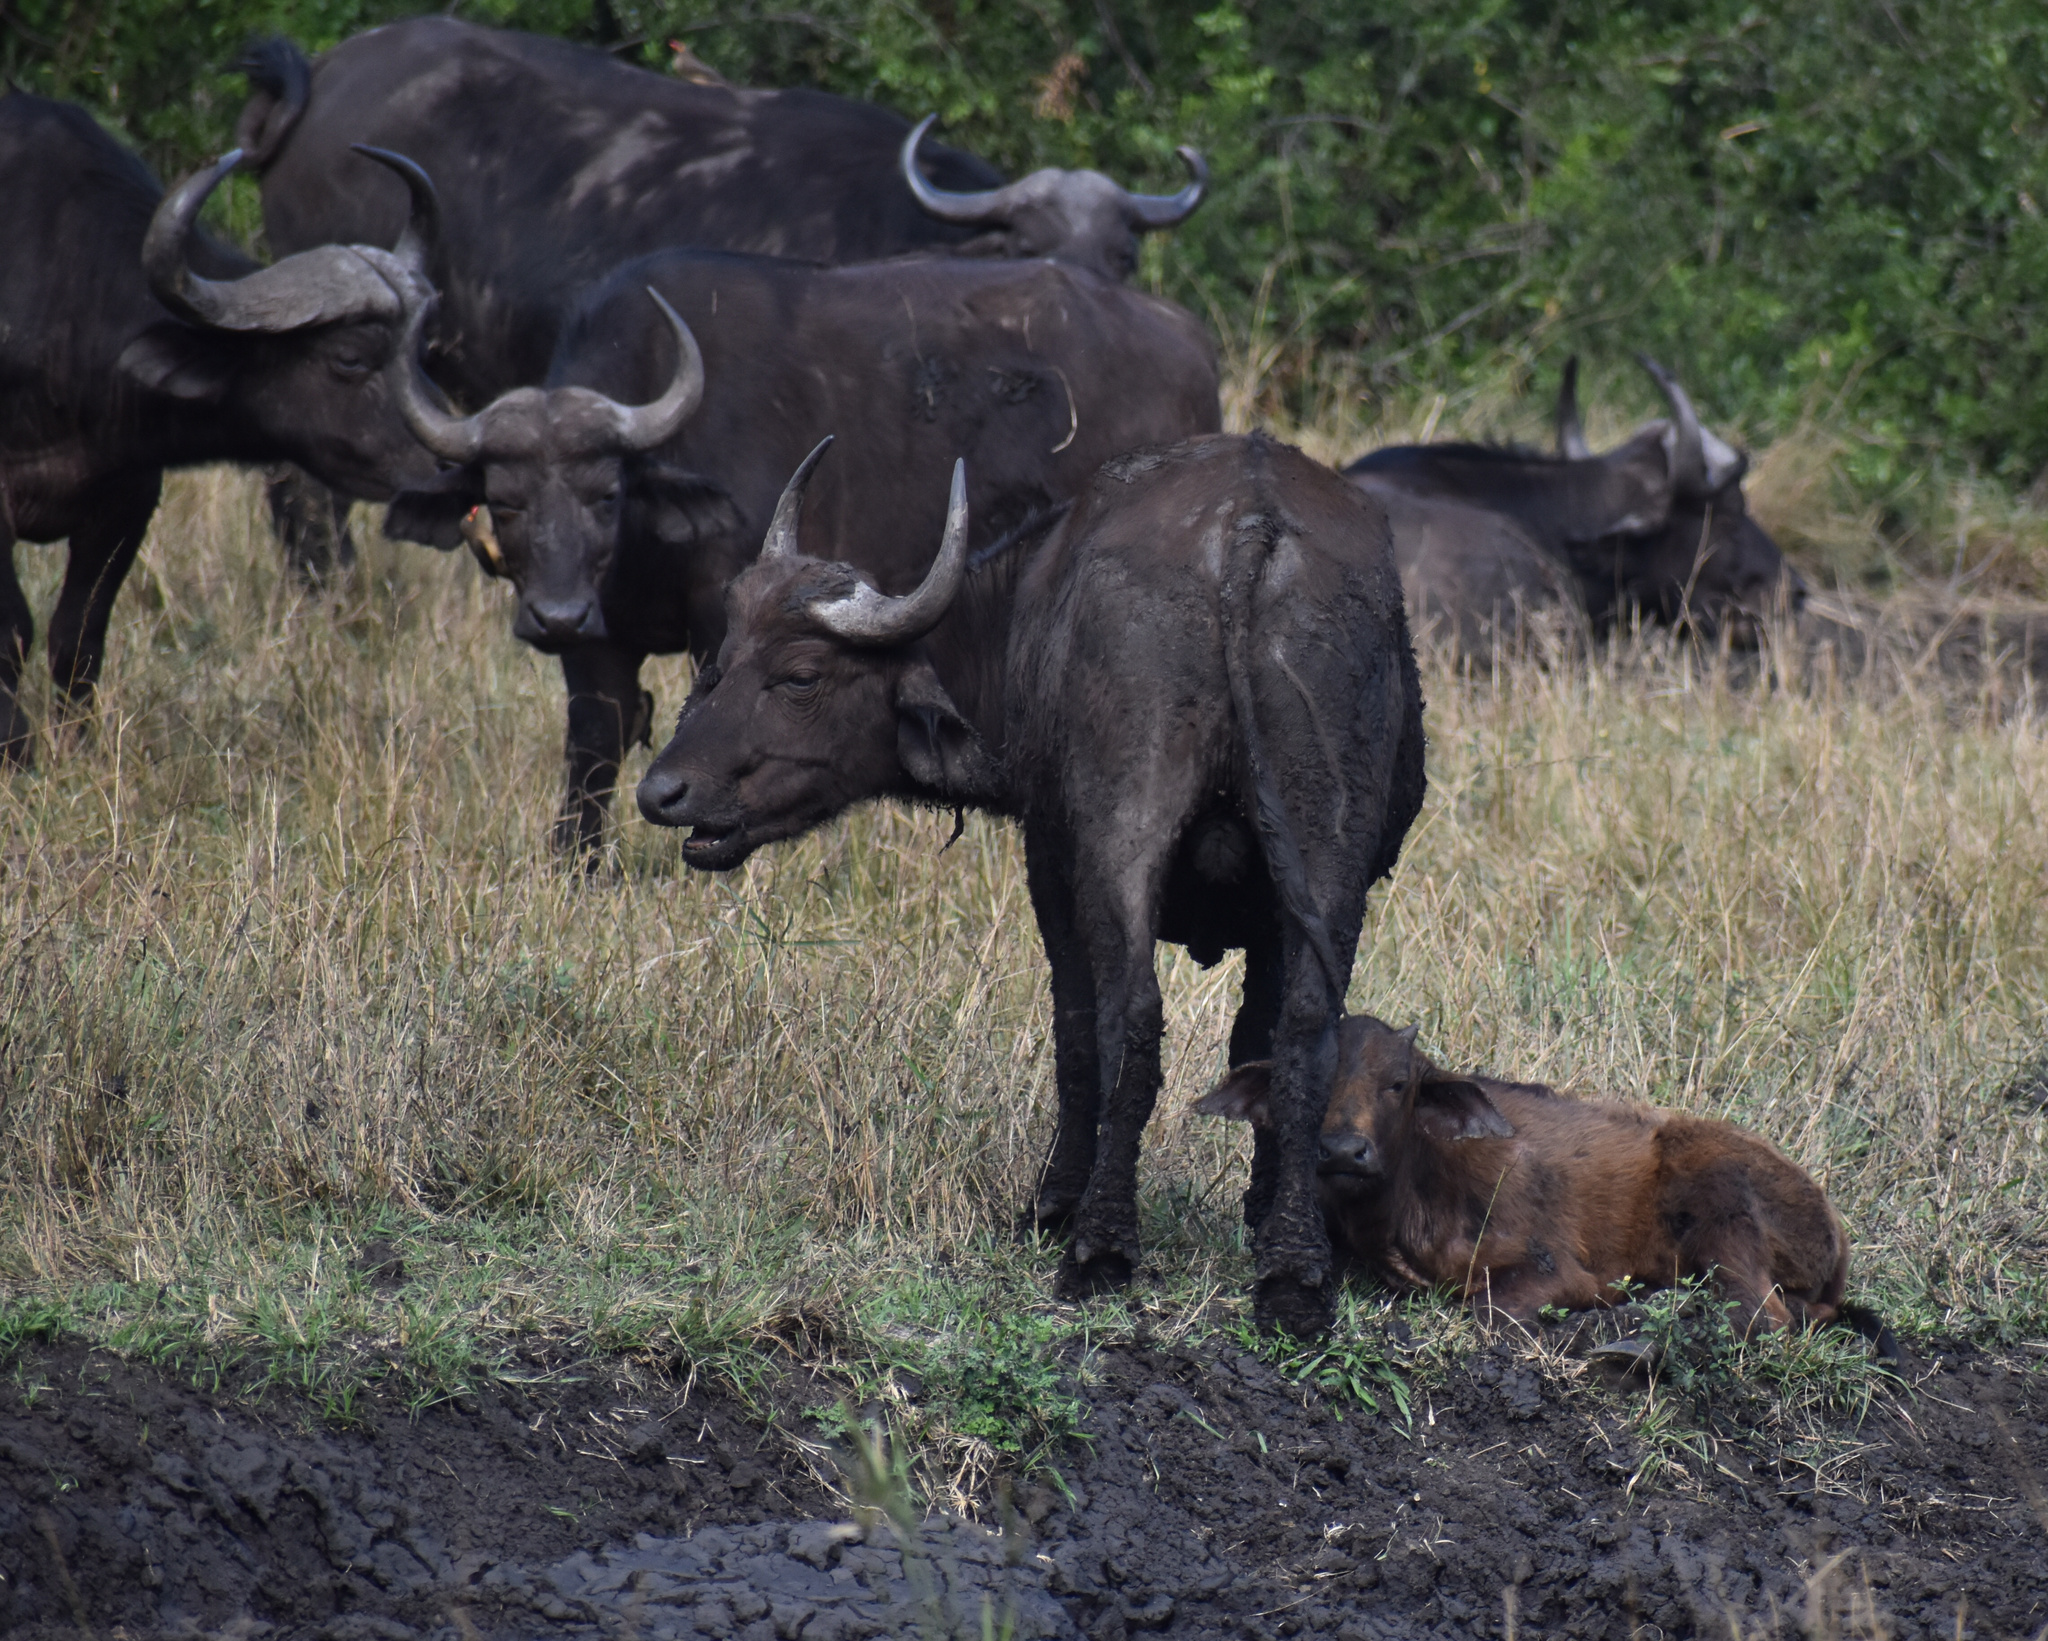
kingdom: Animalia
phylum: Chordata
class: Mammalia
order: Artiodactyla
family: Bovidae
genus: Syncerus
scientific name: Syncerus caffer
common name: African buffalo
